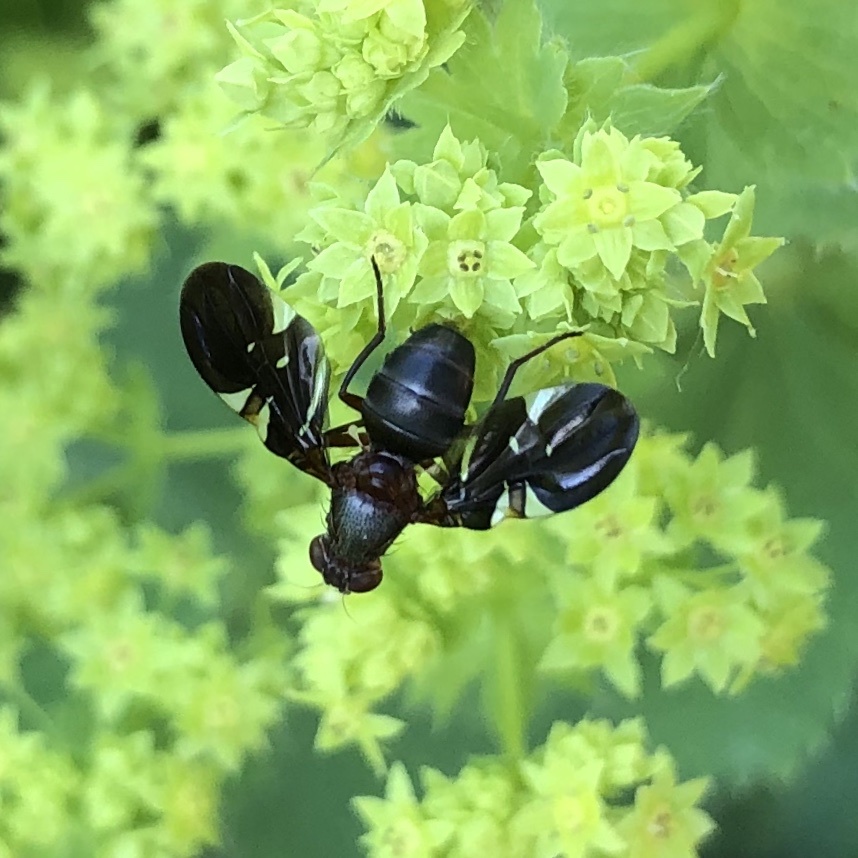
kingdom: Animalia
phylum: Arthropoda
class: Insecta
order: Diptera
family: Ulidiidae
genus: Delphinia
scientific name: Delphinia picta
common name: Common picture-winged fly
